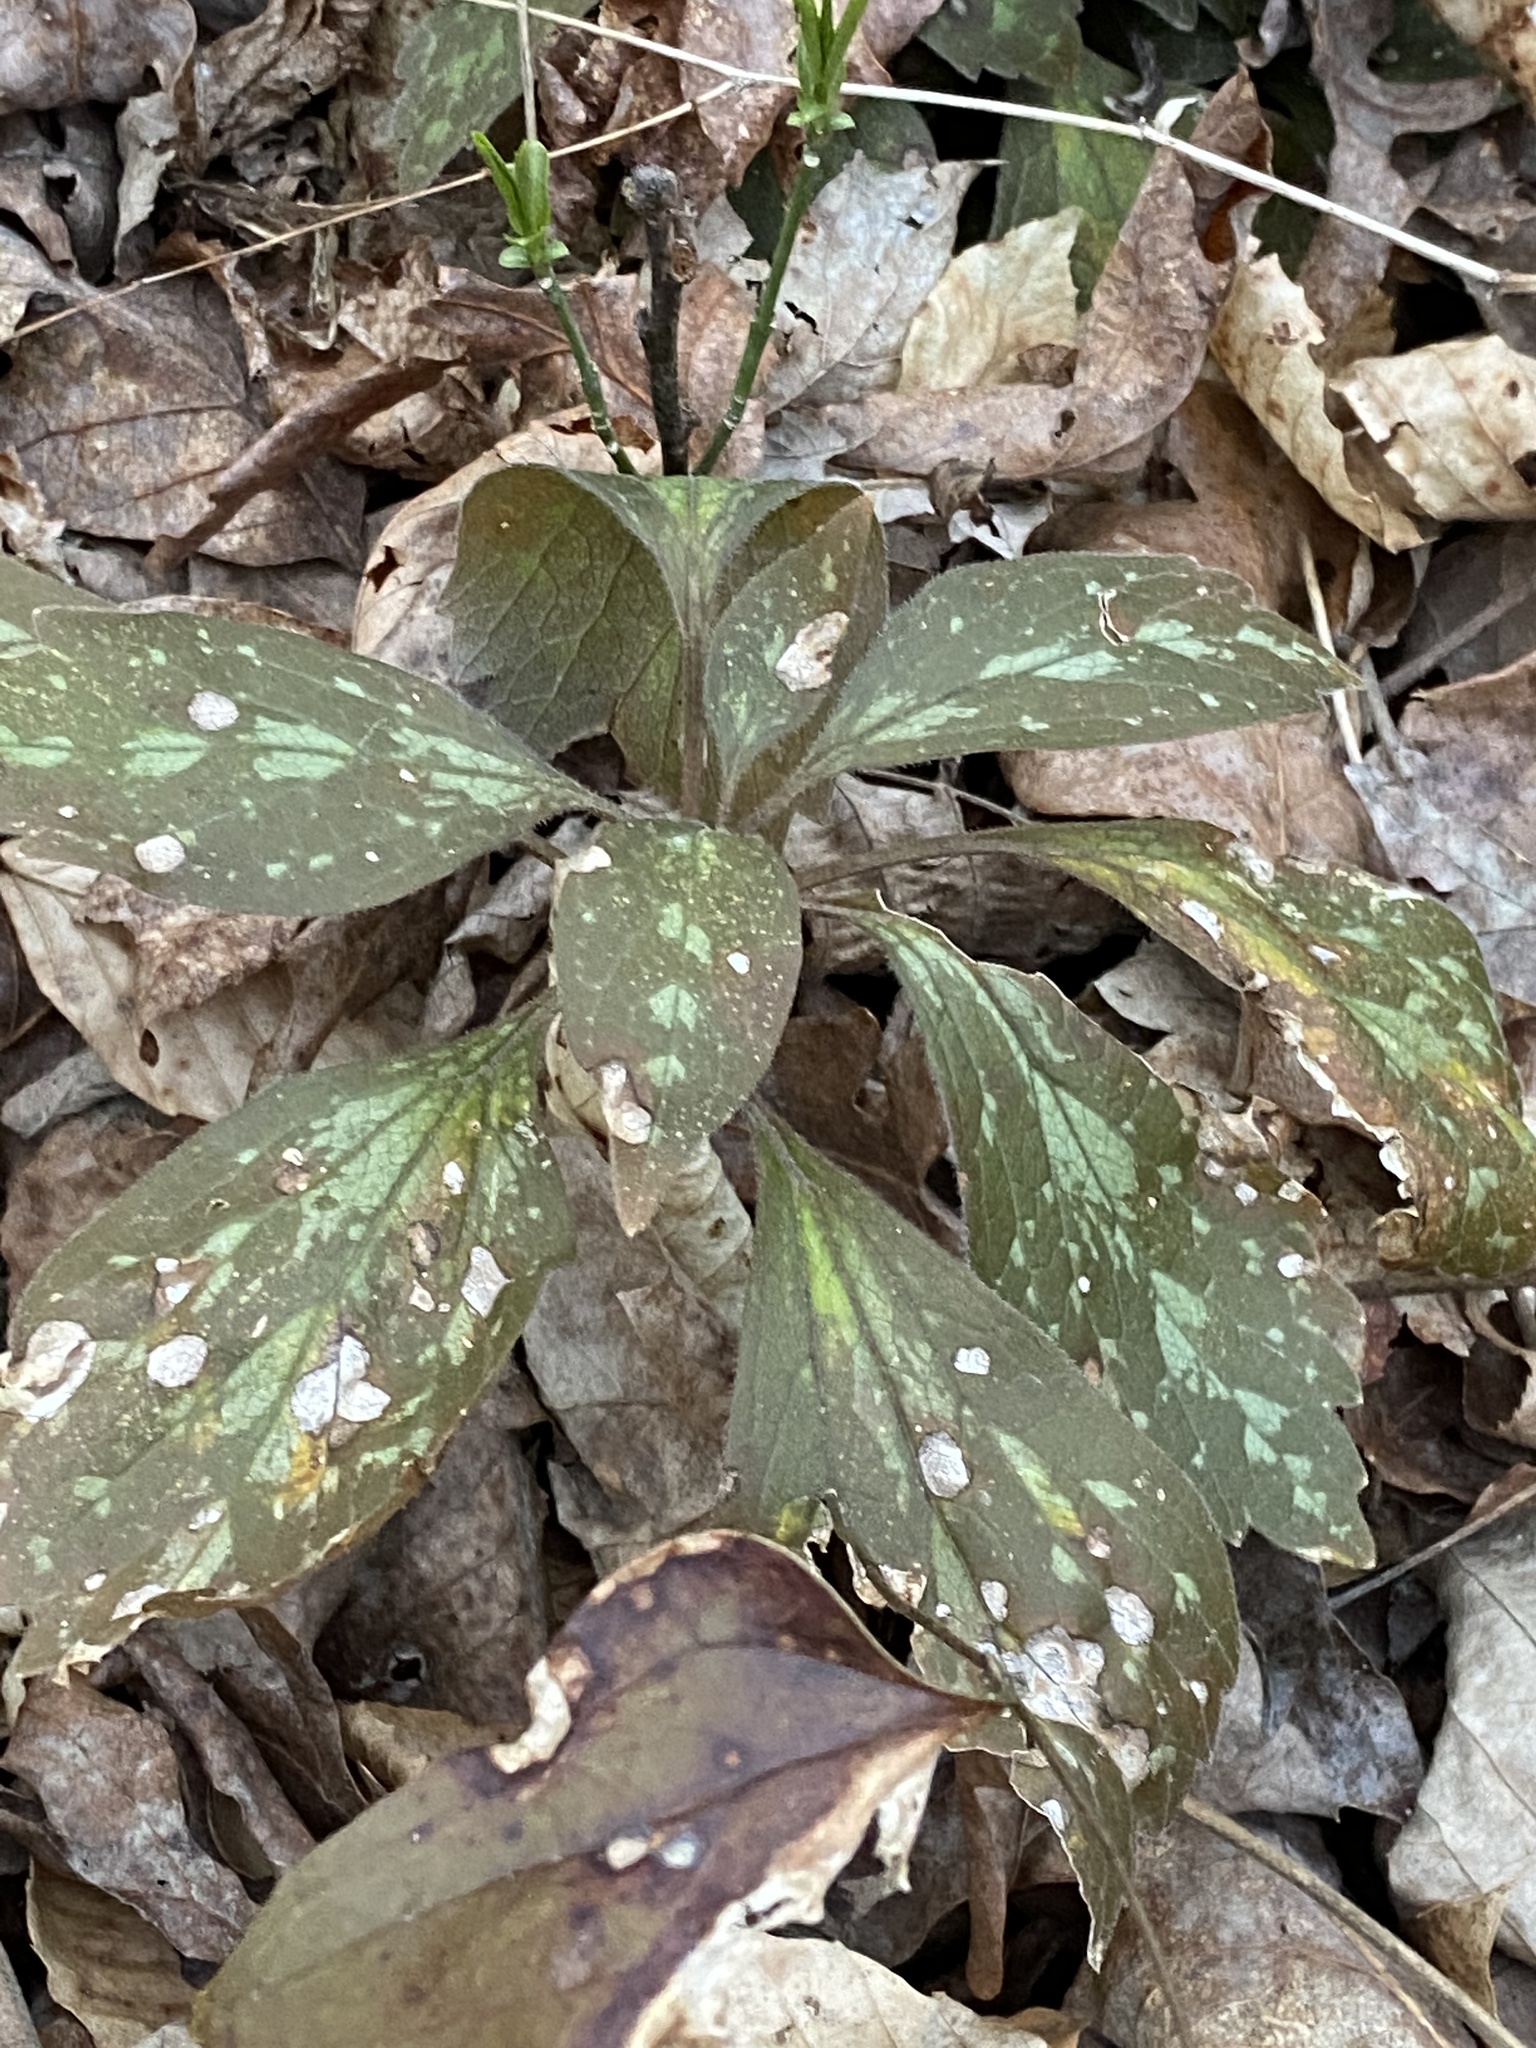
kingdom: Plantae
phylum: Tracheophyta
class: Magnoliopsida
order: Buxales
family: Buxaceae
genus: Pachysandra
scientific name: Pachysandra procumbens
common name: Mountain-spurge
